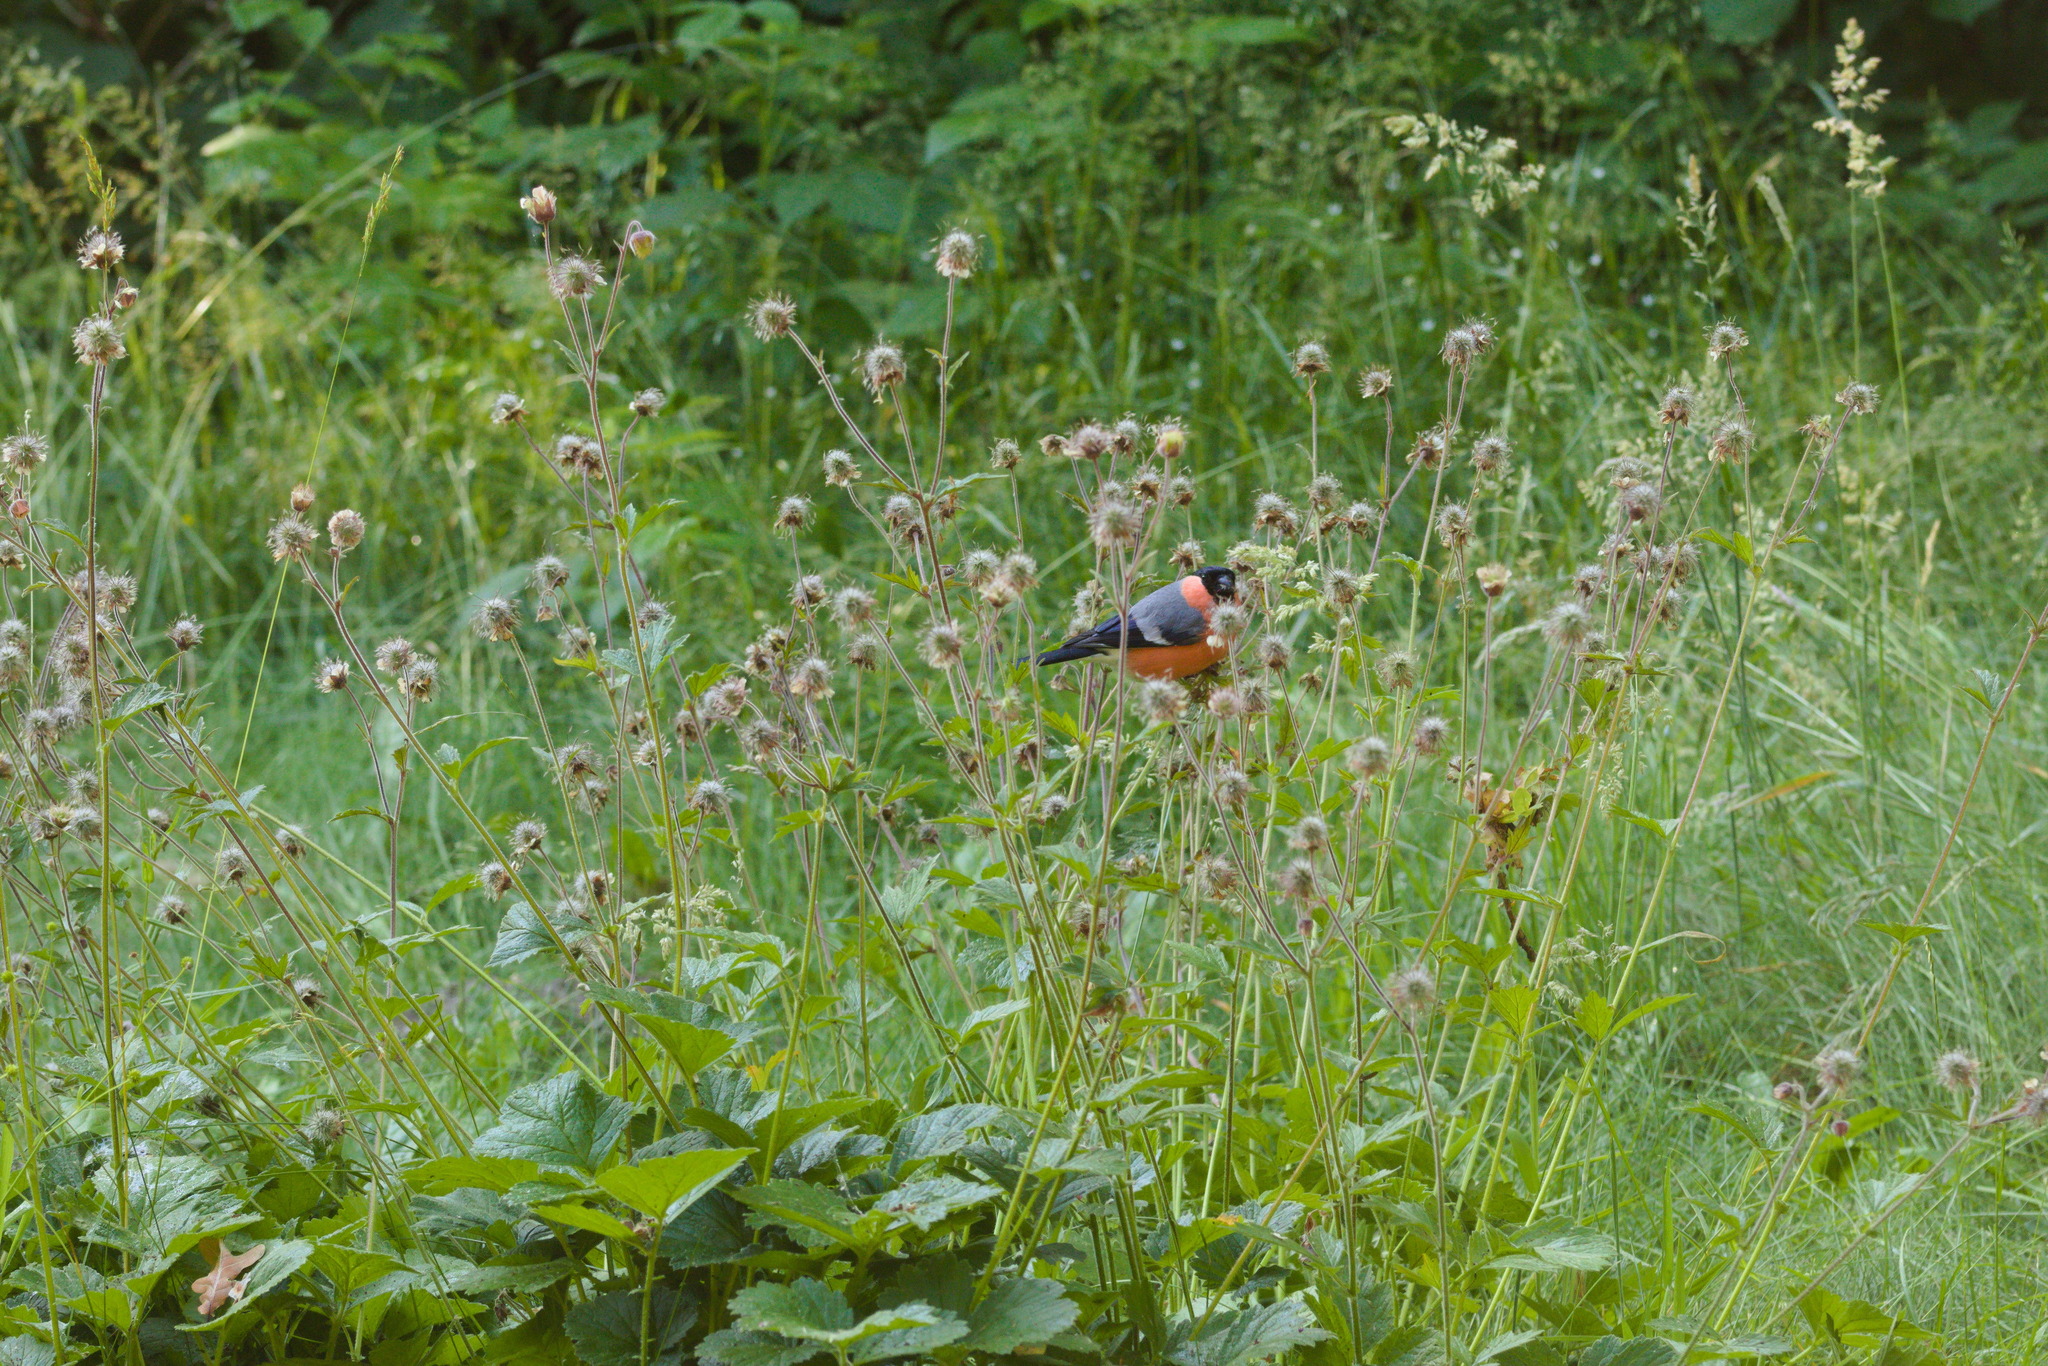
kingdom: Animalia
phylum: Chordata
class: Aves
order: Passeriformes
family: Fringillidae
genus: Pyrrhula
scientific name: Pyrrhula pyrrhula
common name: Eurasian bullfinch
